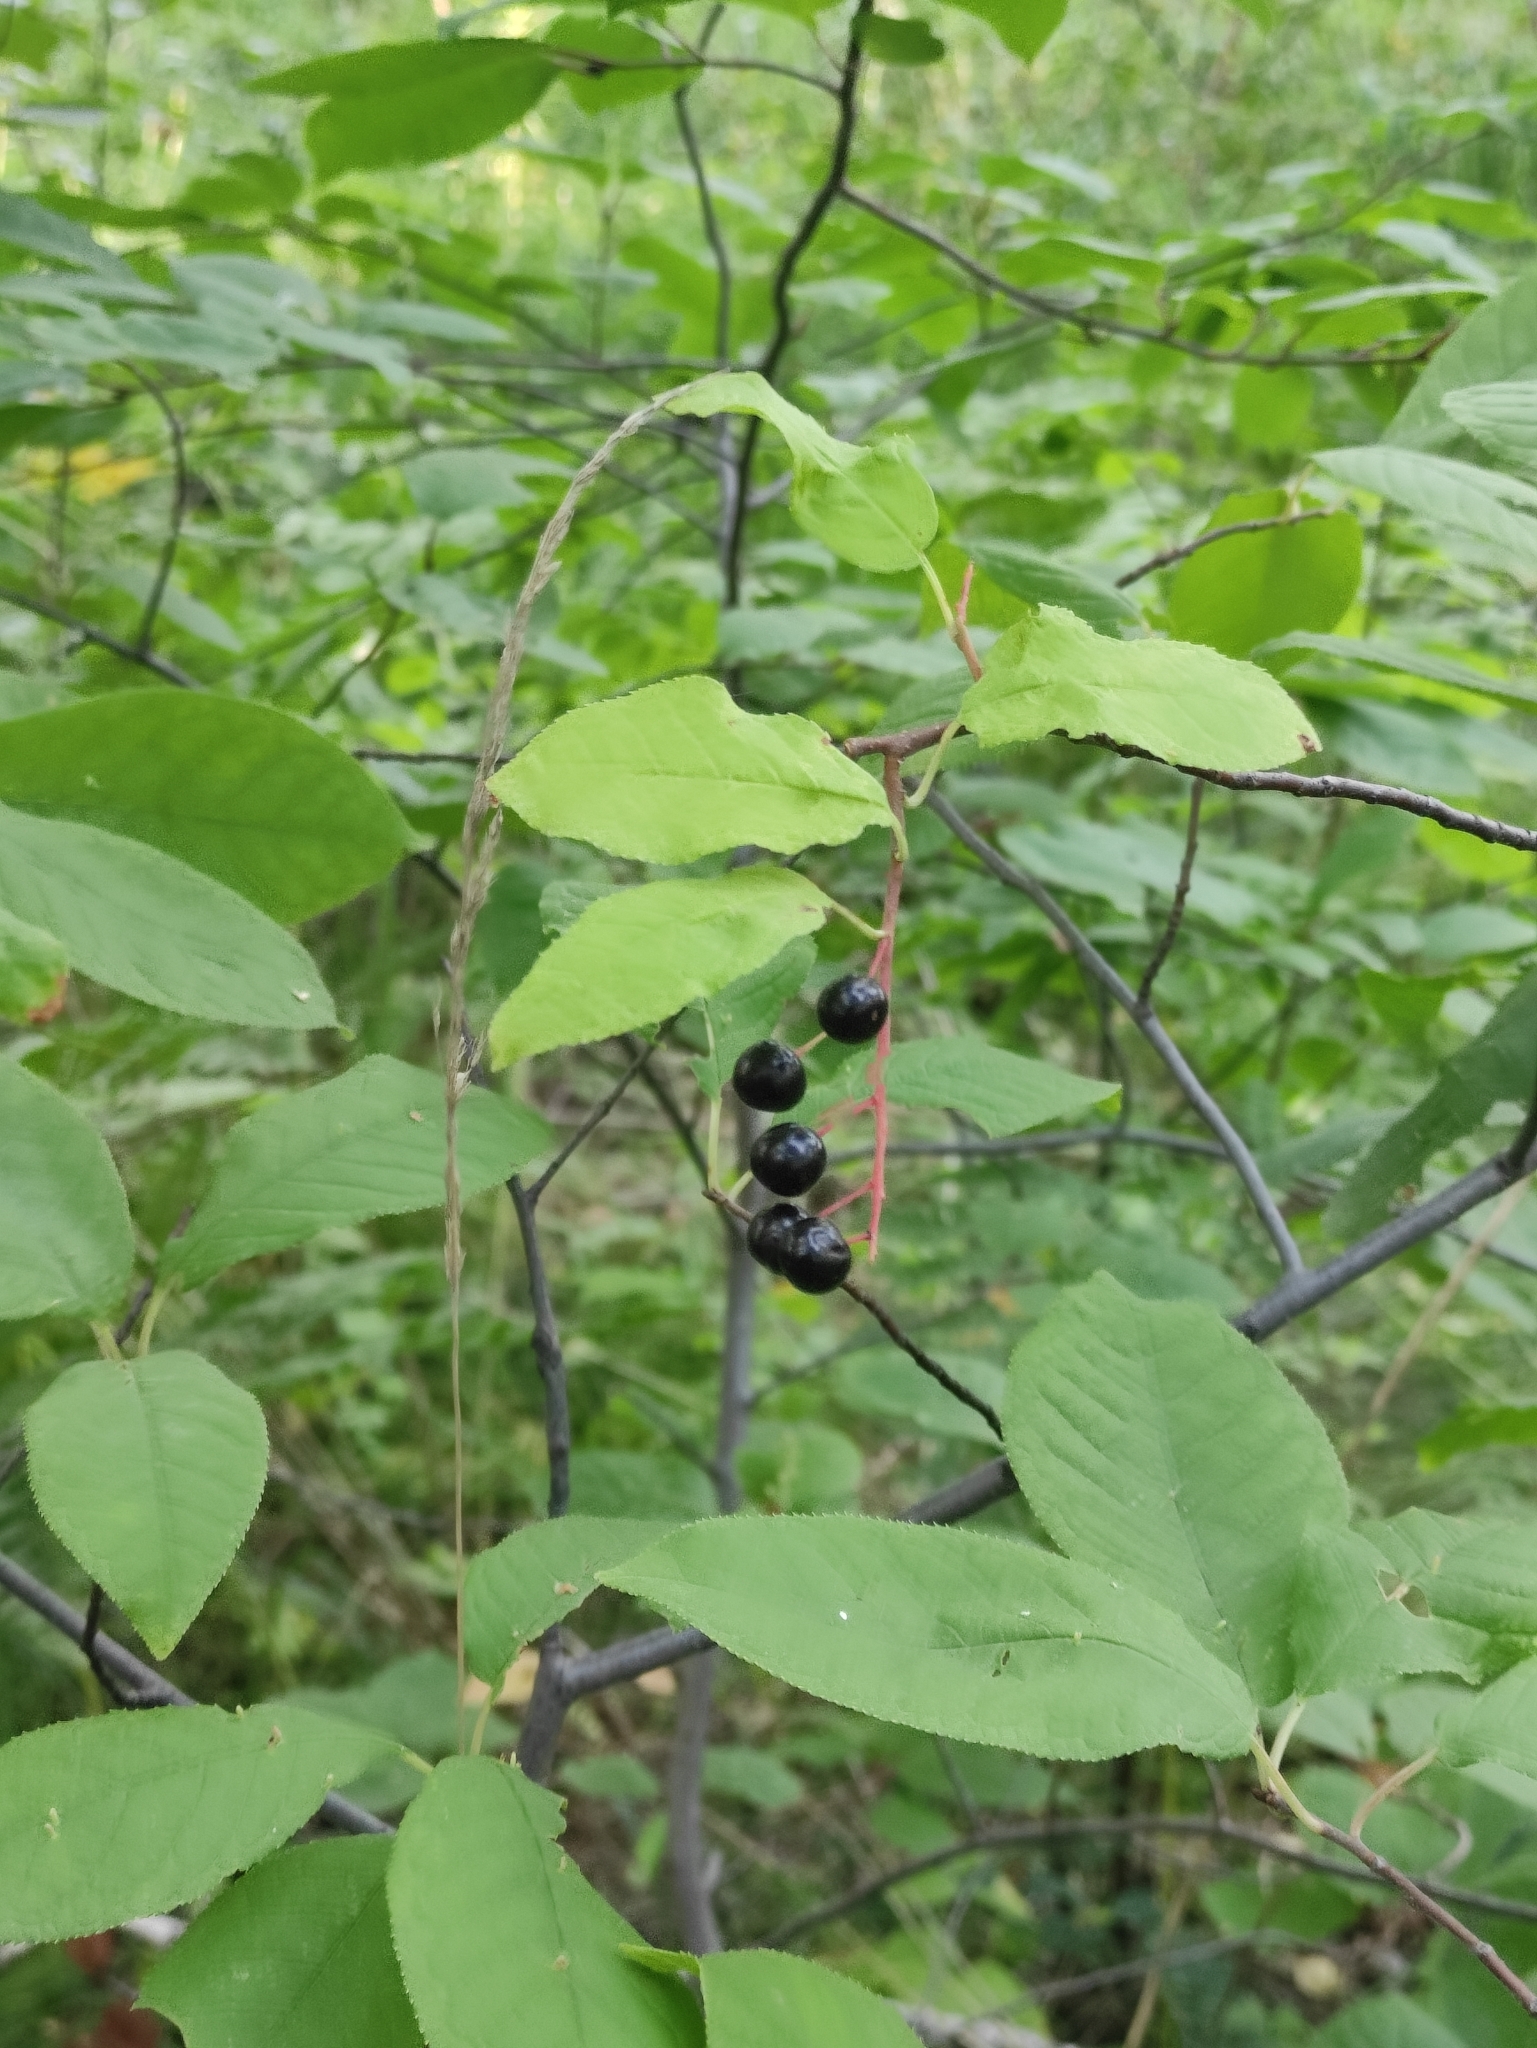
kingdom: Plantae
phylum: Tracheophyta
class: Magnoliopsida
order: Rosales
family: Rosaceae
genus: Prunus
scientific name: Prunus padus
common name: Bird cherry
